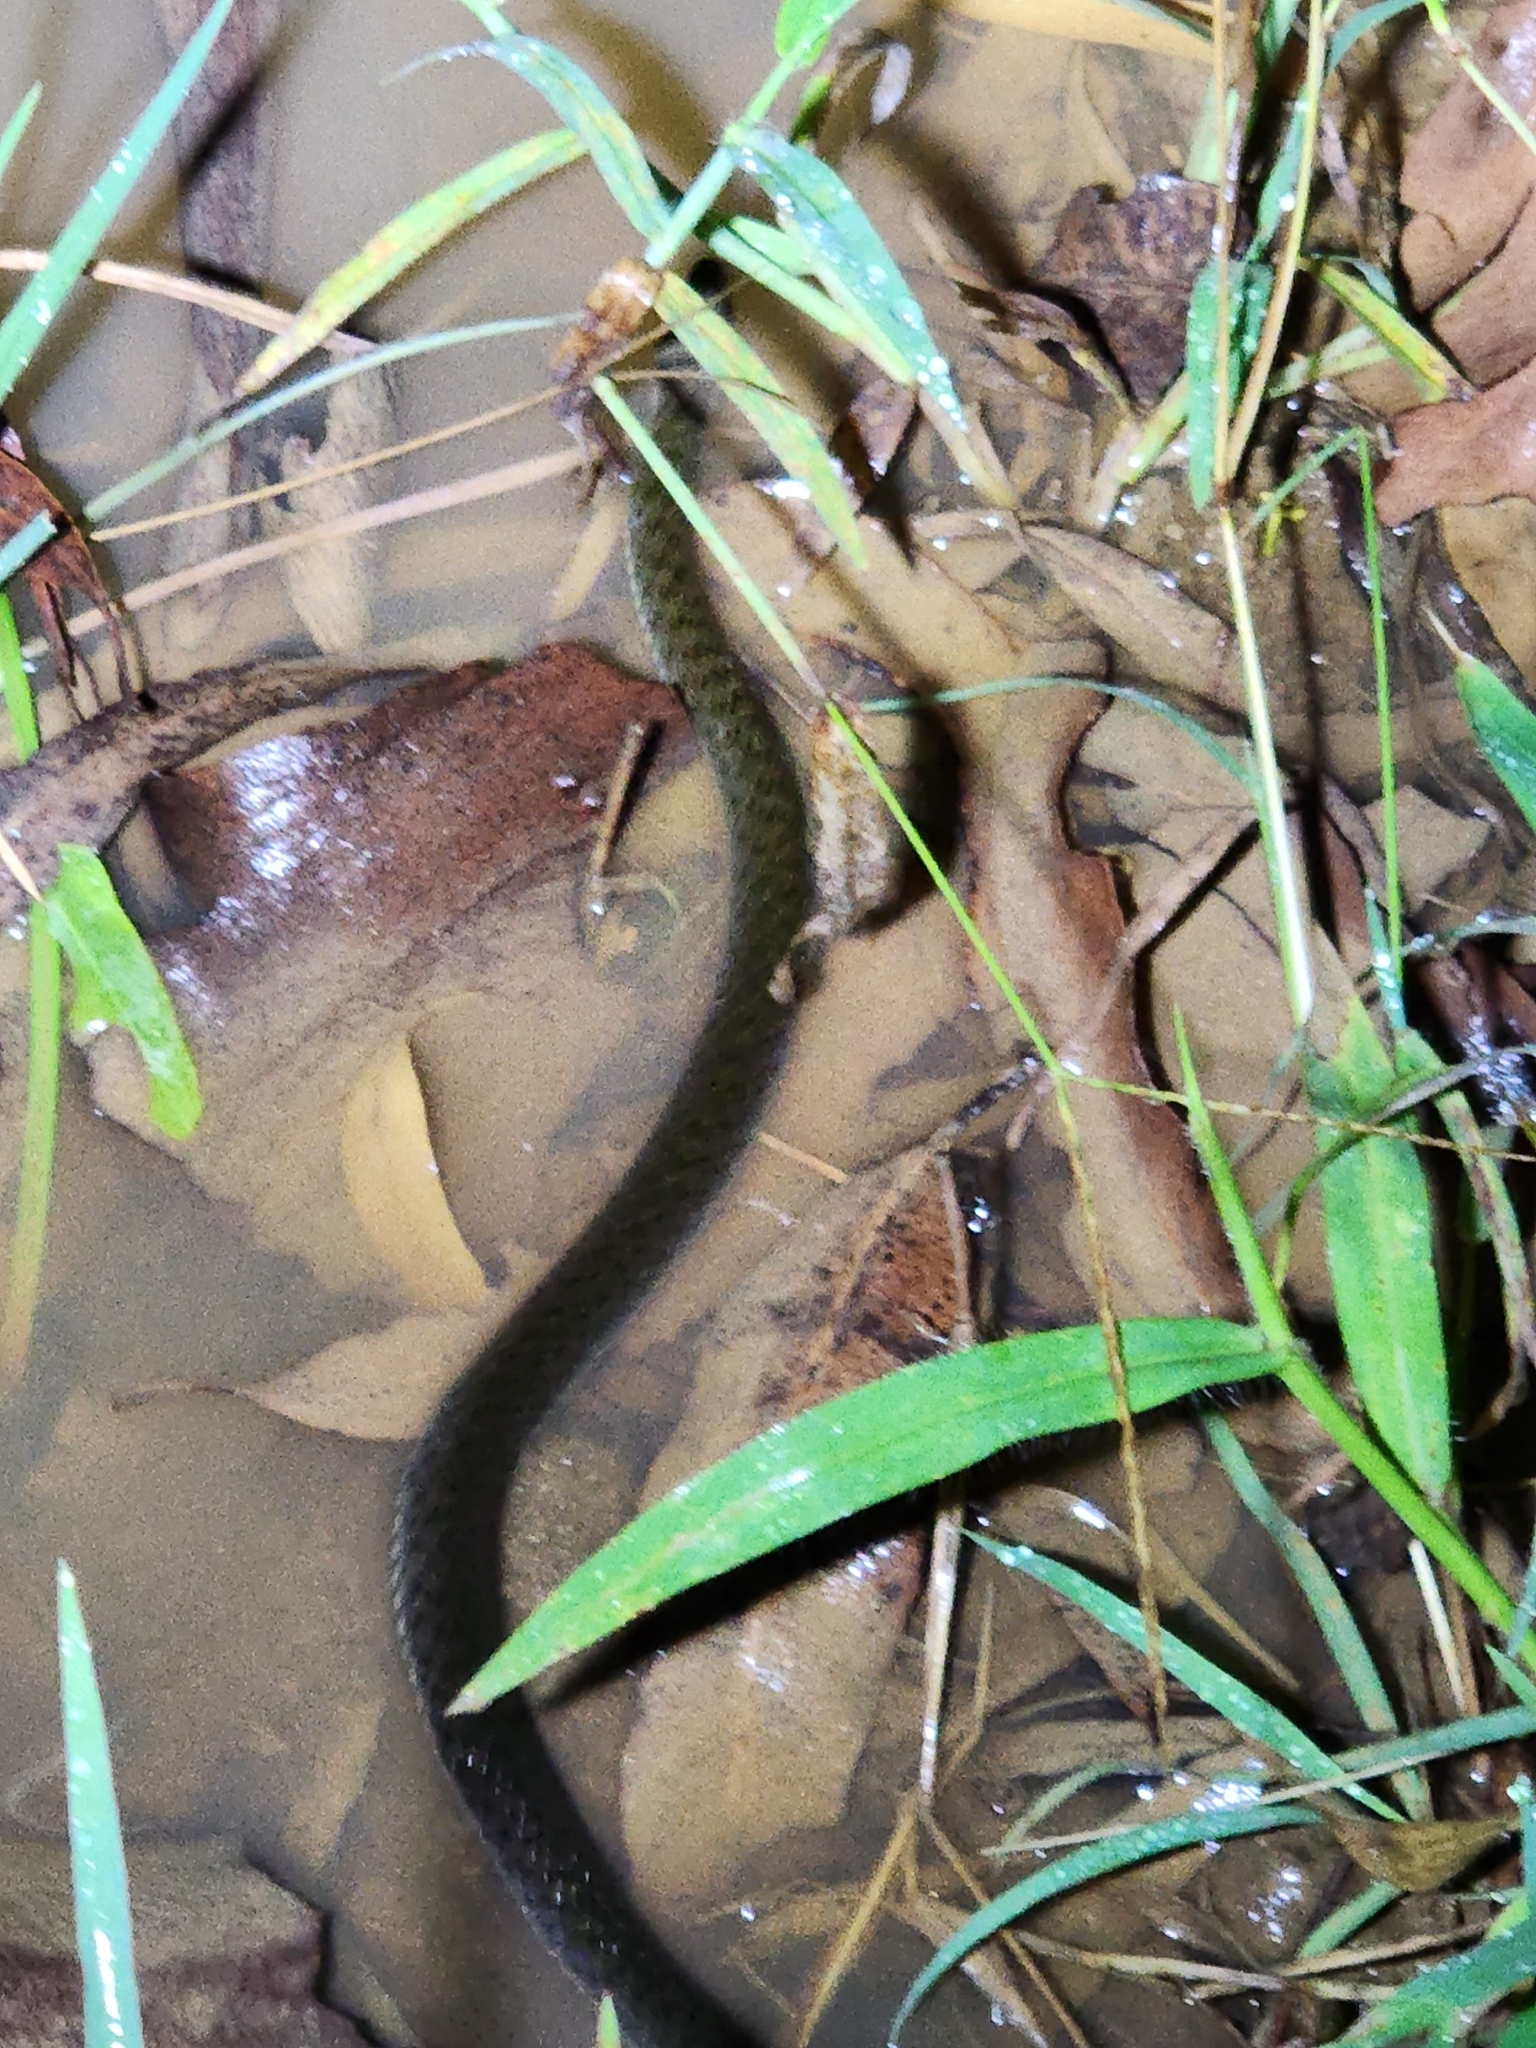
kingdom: Animalia
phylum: Chordata
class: Squamata
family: Colubridae
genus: Tropidonophis
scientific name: Tropidonophis mairii
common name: Common keelback
